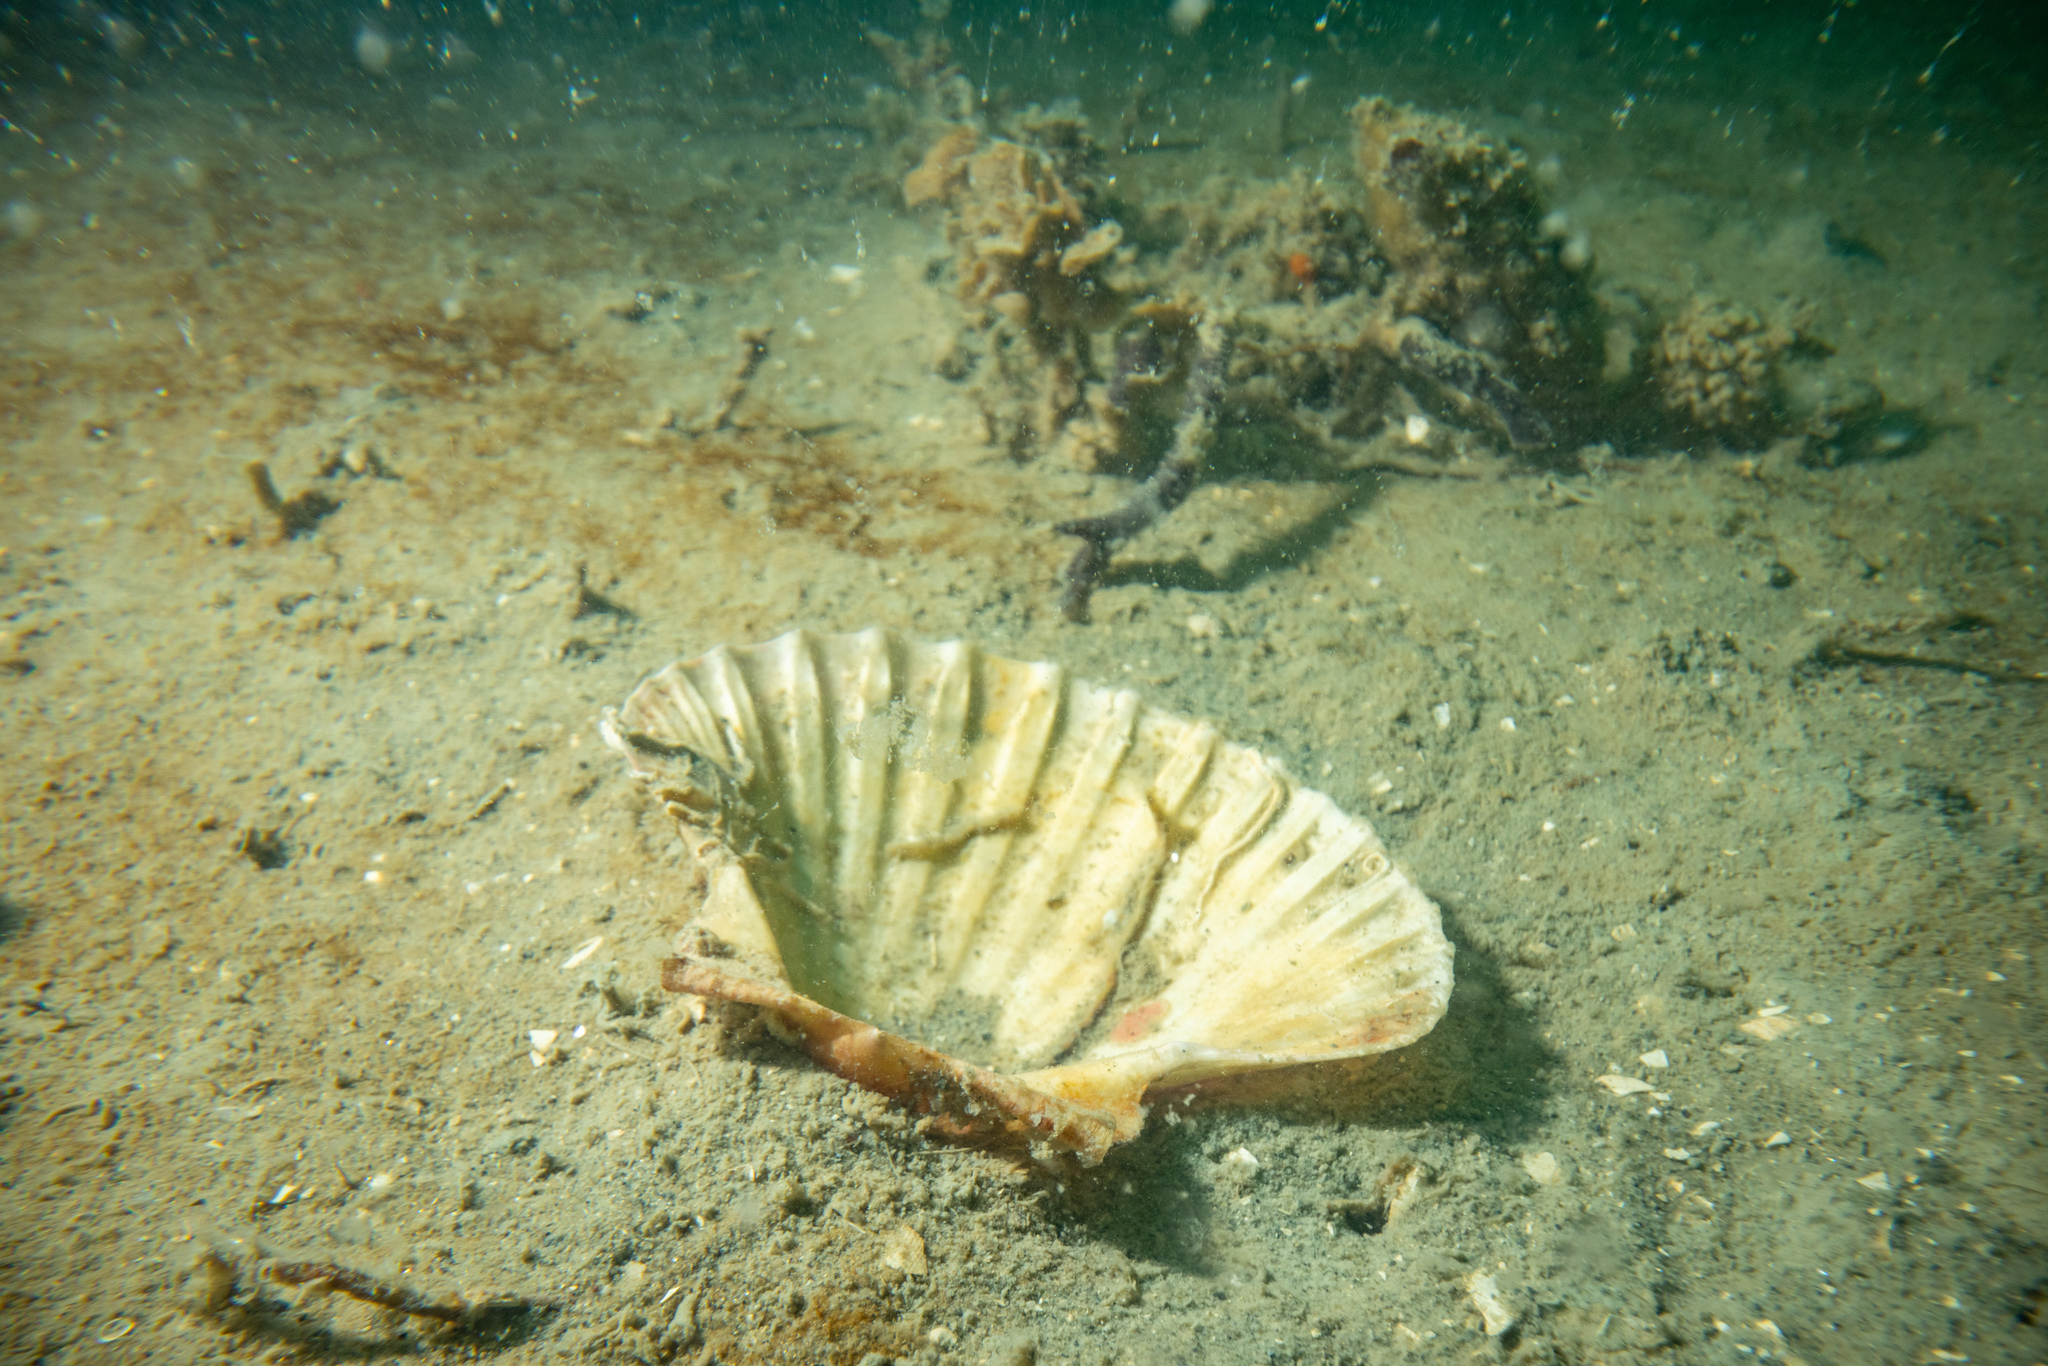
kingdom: Animalia
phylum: Mollusca
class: Bivalvia
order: Pectinida
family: Pectinidae
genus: Pecten
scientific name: Pecten novaezelandiae
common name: New zealand scallop
